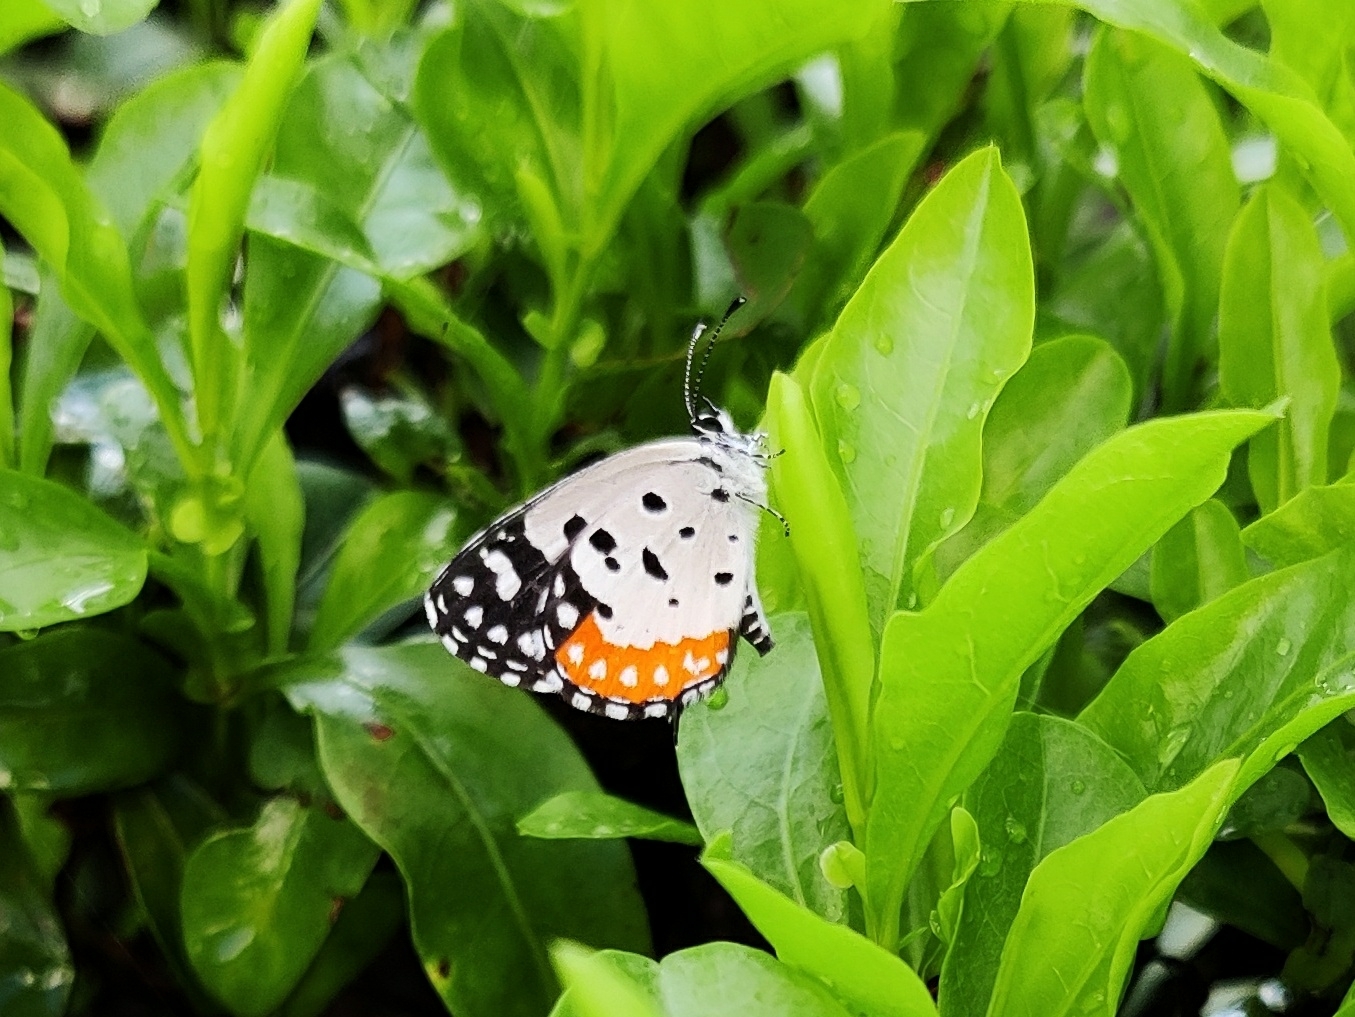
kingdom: Animalia
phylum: Arthropoda
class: Insecta
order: Lepidoptera
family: Lycaenidae
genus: Talicada
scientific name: Talicada nyseus
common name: Red pierrot
